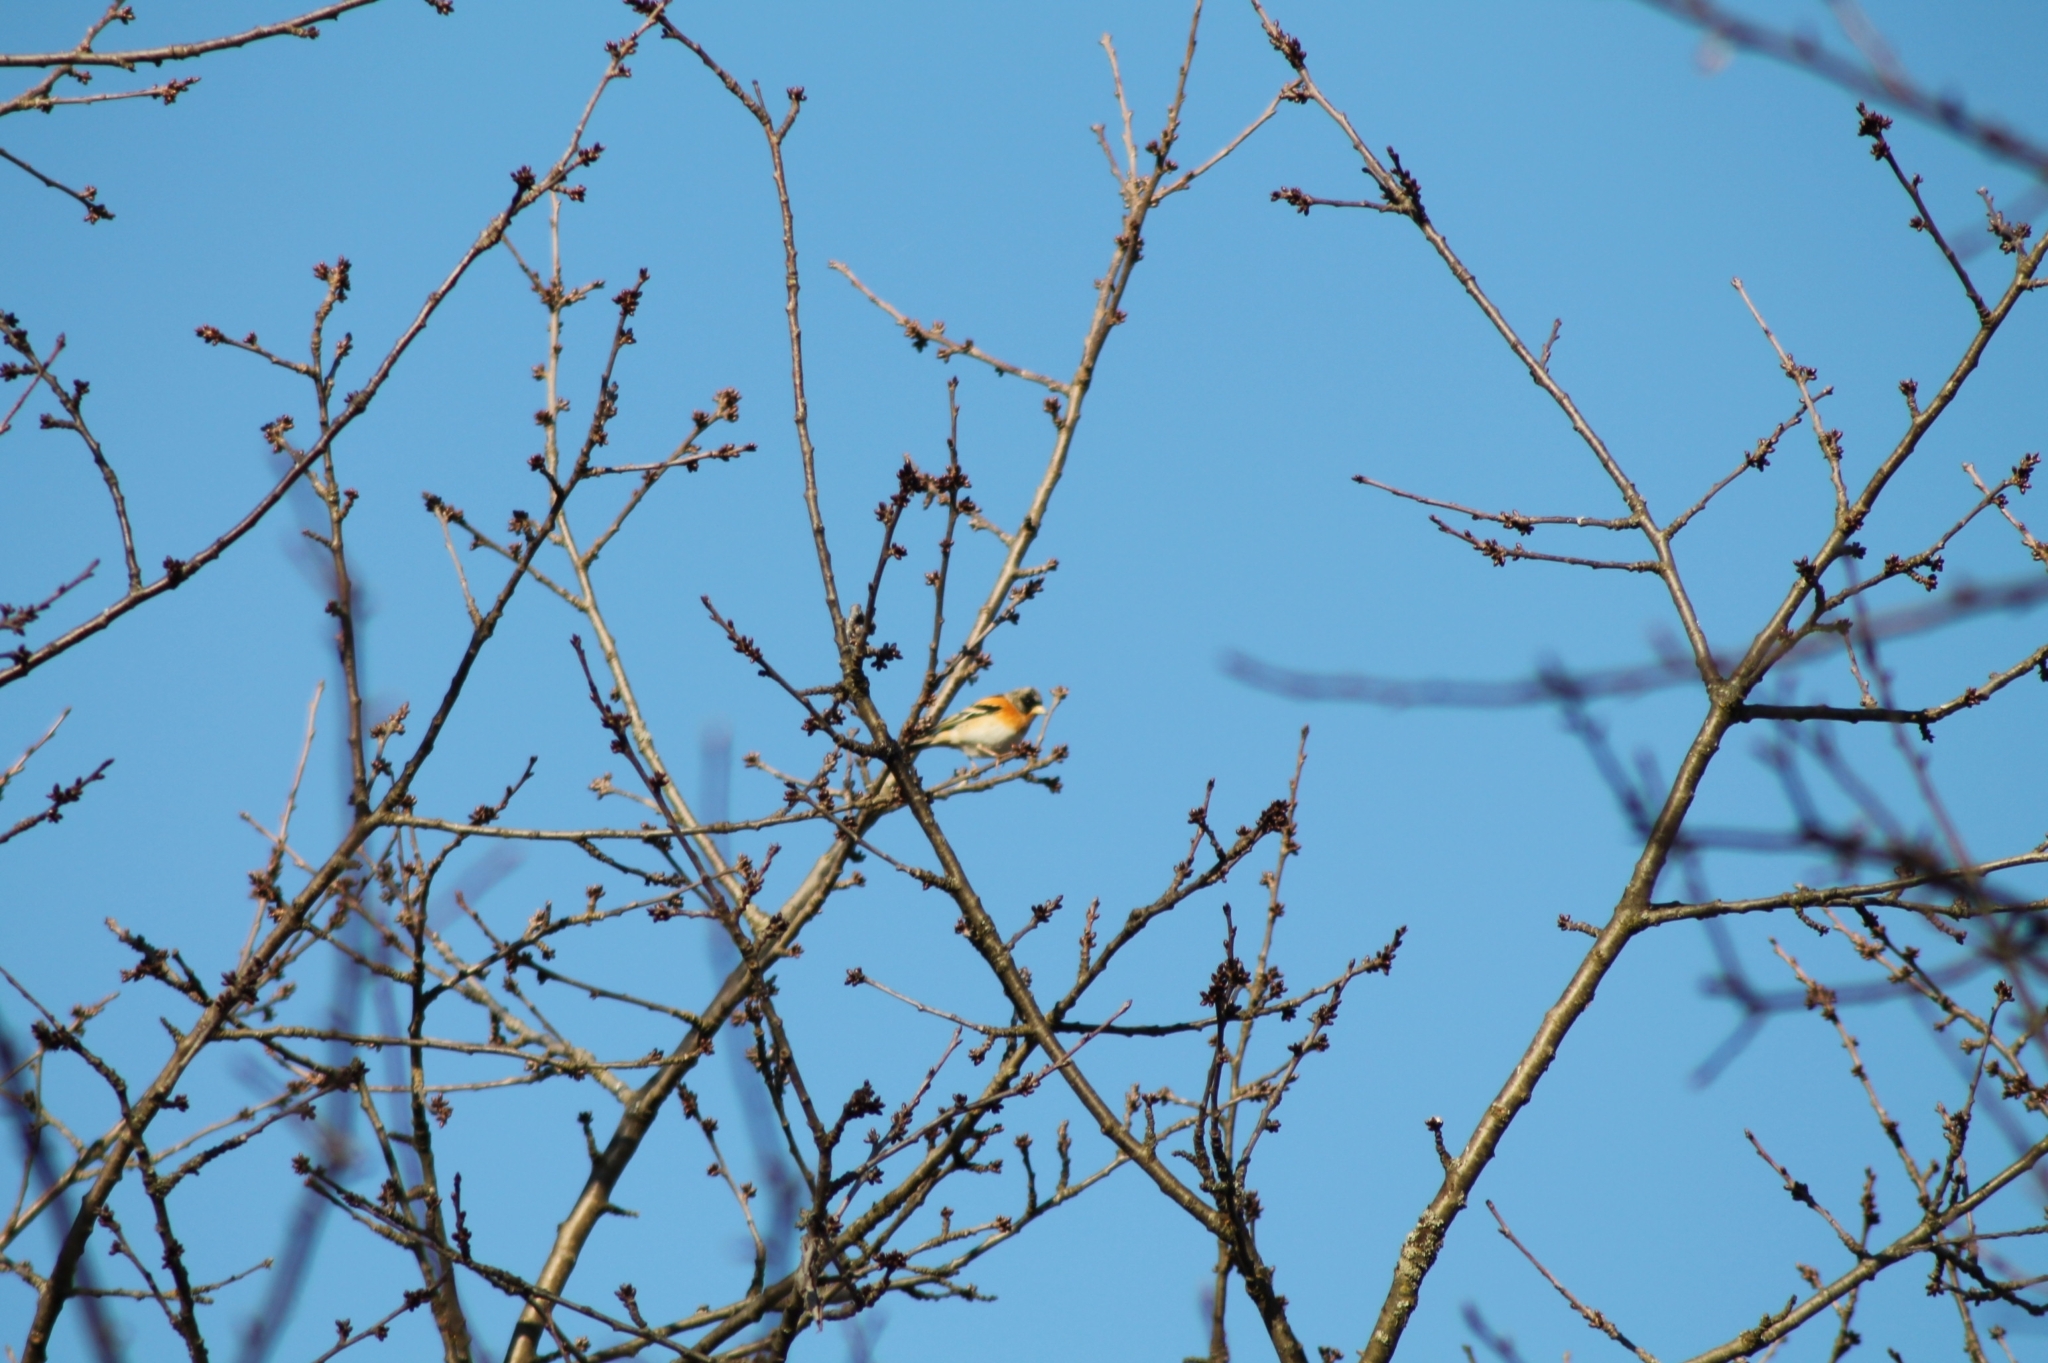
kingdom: Animalia
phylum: Chordata
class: Aves
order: Passeriformes
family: Fringillidae
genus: Fringilla
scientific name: Fringilla montifringilla
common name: Brambling
